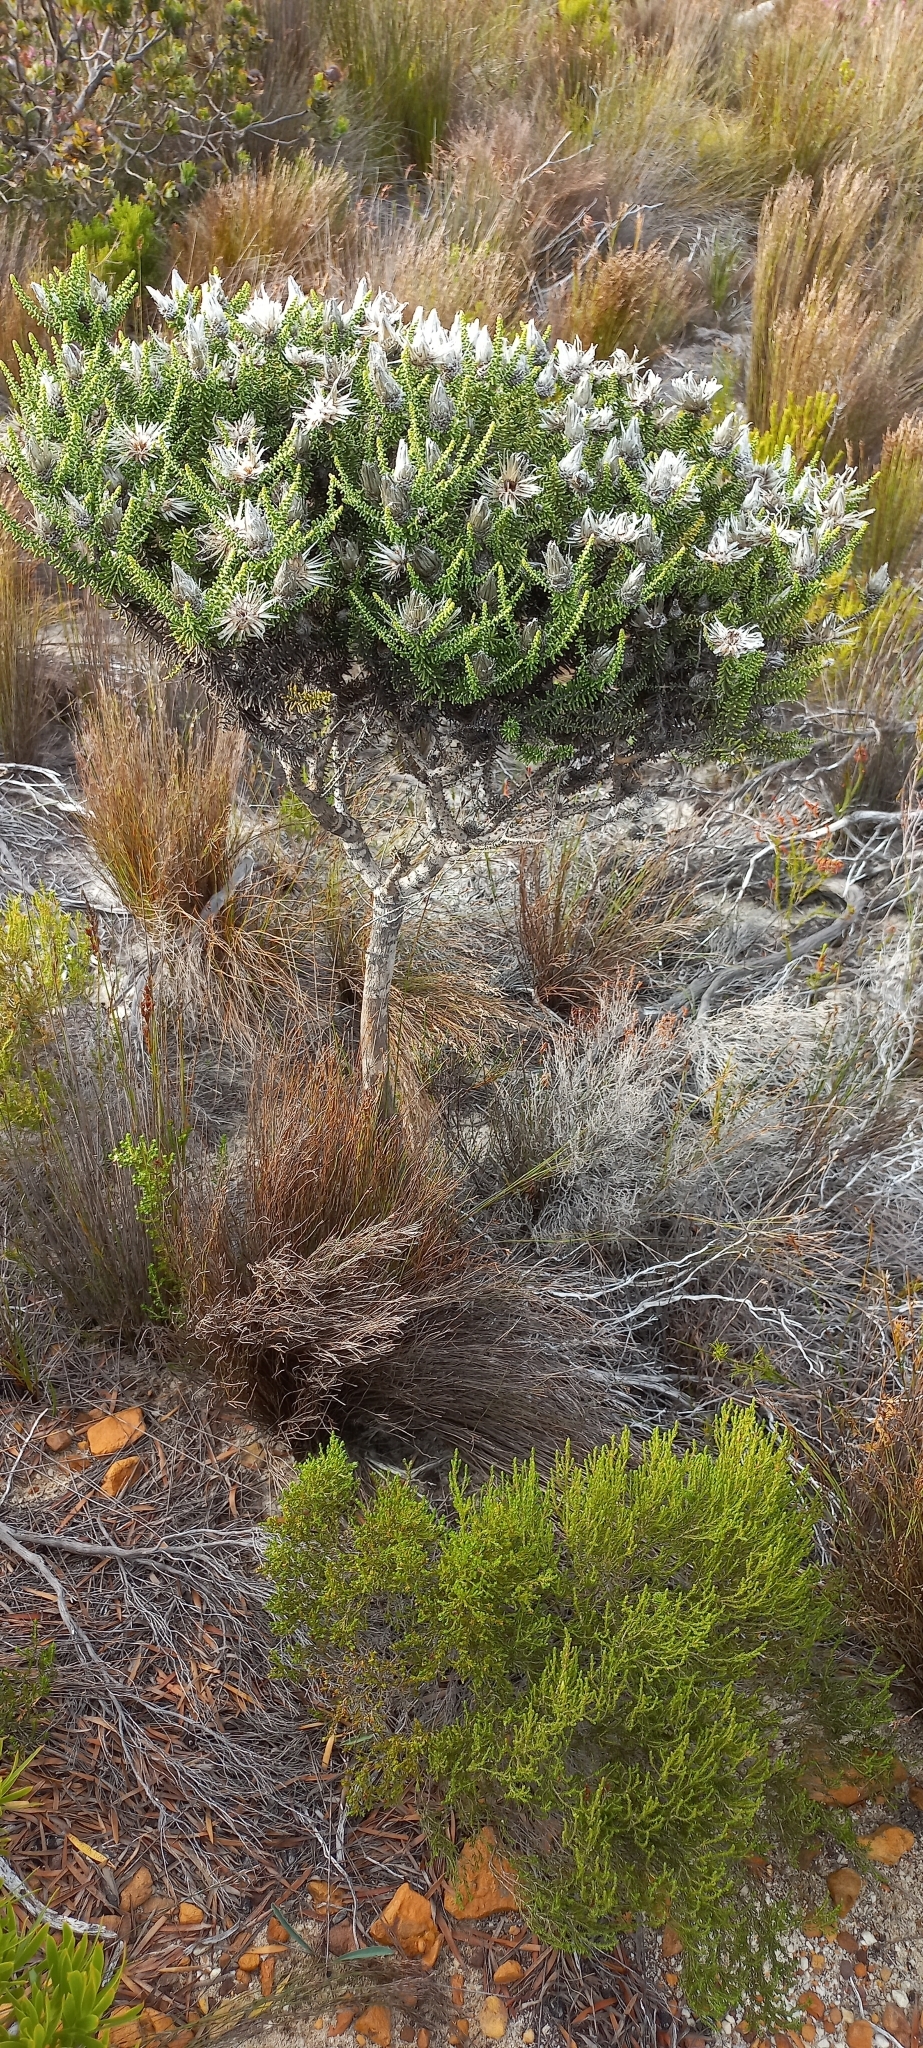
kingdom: Plantae
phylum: Tracheophyta
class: Magnoliopsida
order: Asterales
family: Asteraceae
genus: Phaenocoma
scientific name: Phaenocoma prolifera
